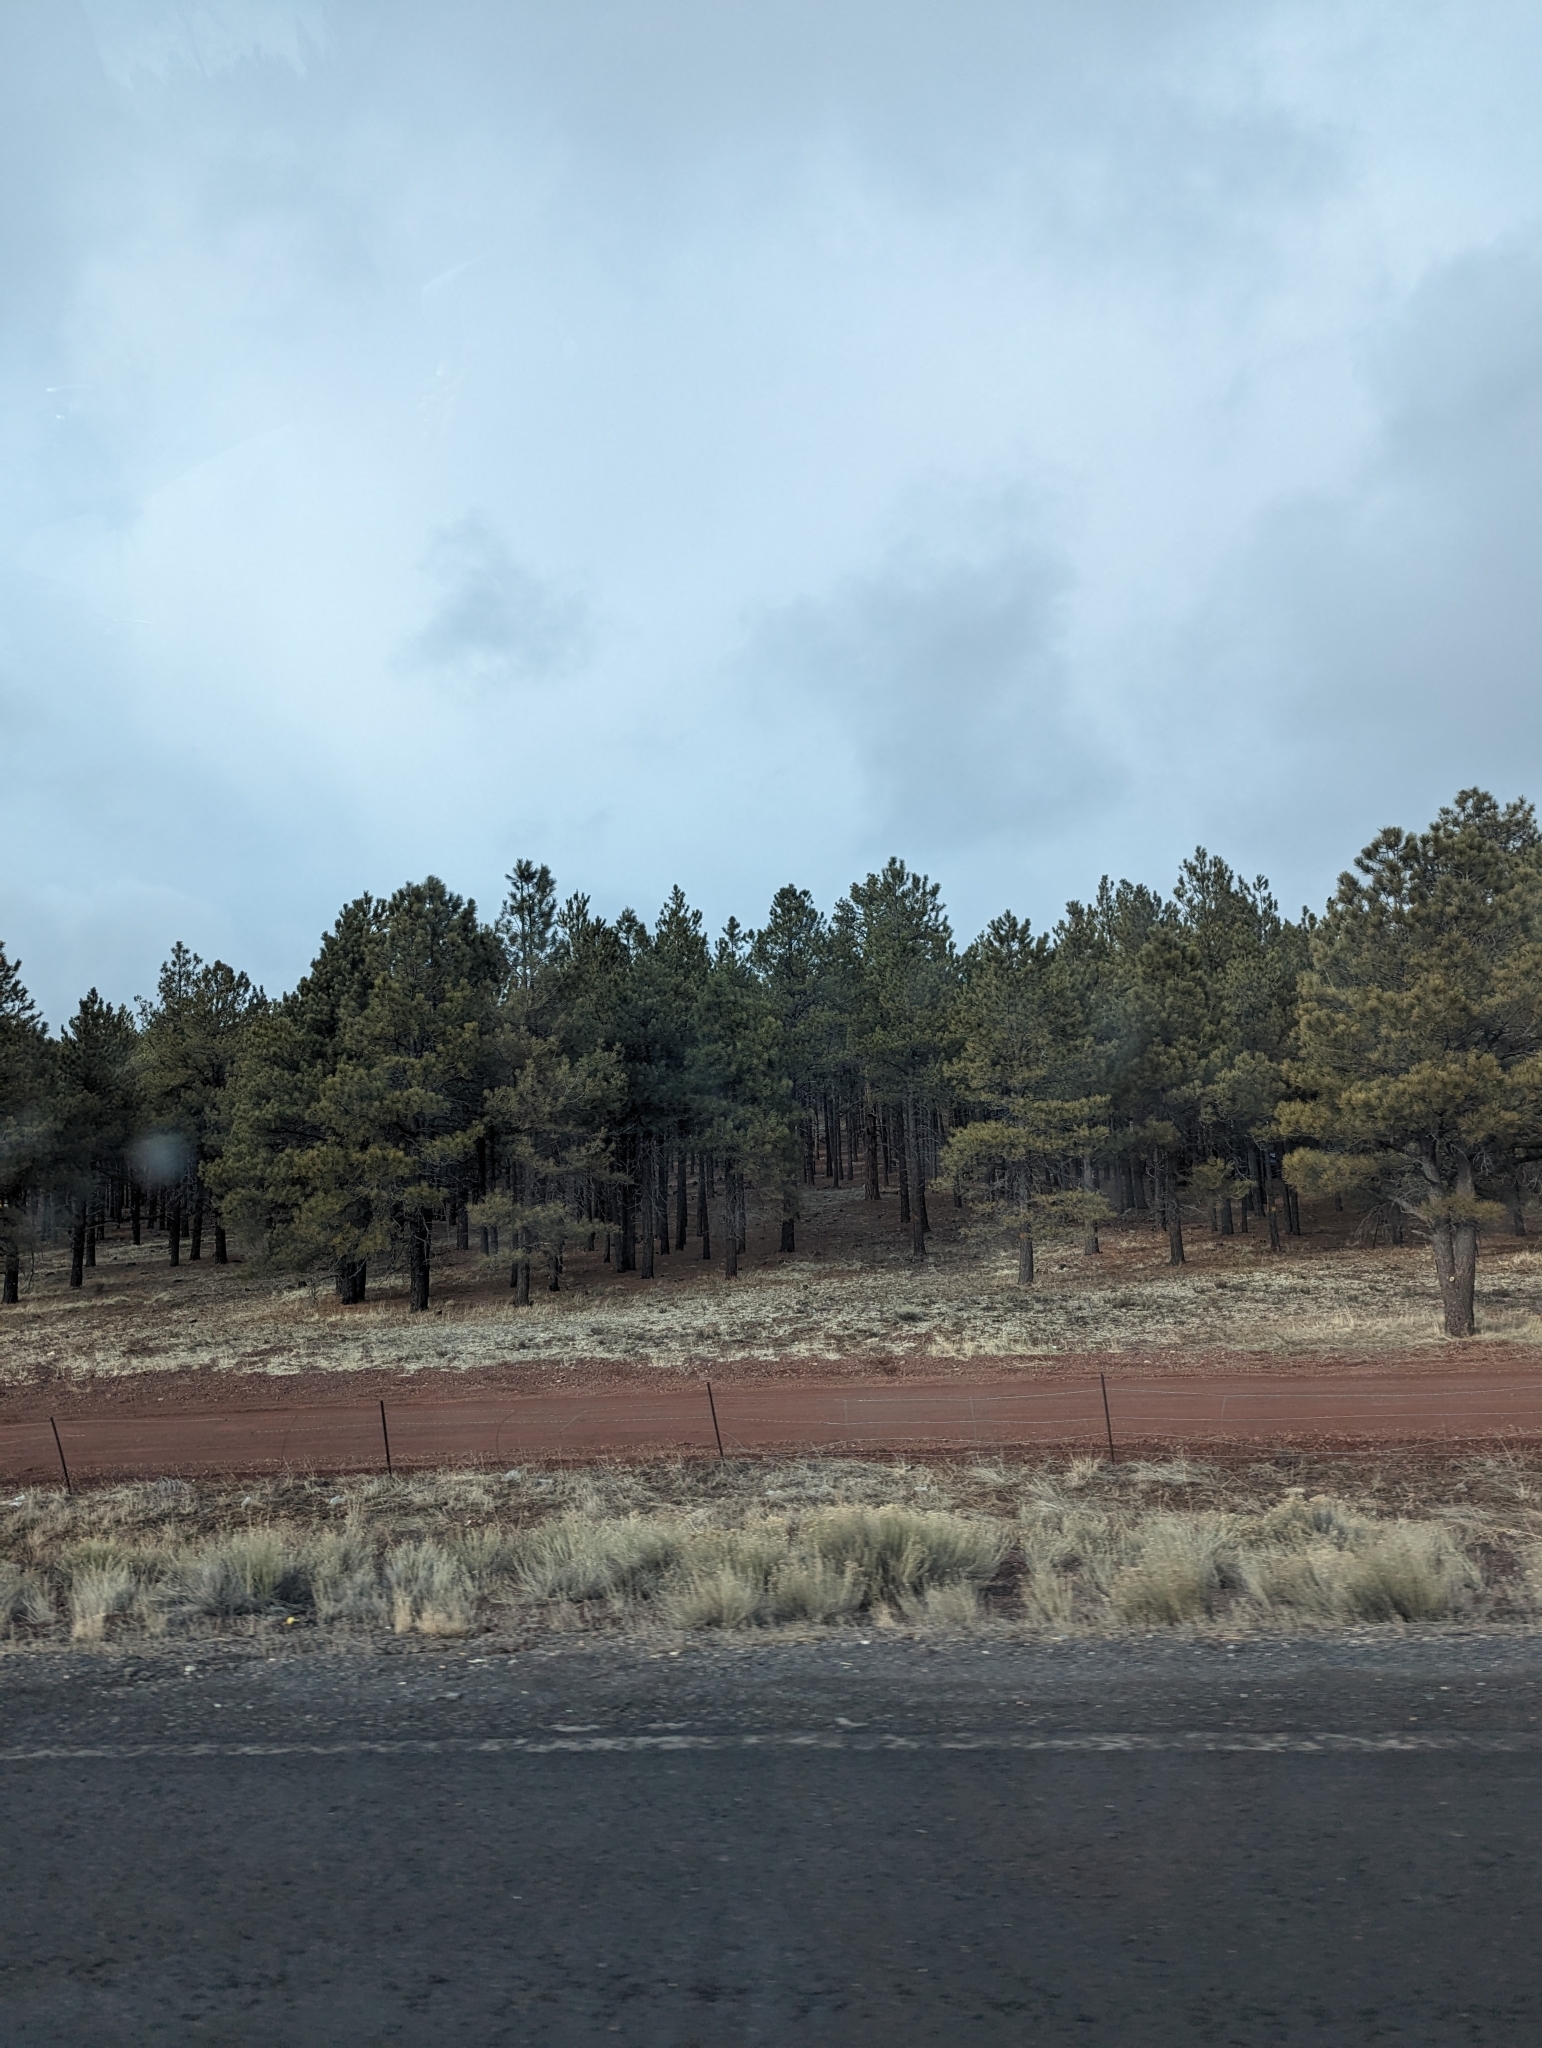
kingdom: Plantae
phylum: Tracheophyta
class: Pinopsida
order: Pinales
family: Pinaceae
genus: Pinus
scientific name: Pinus ponderosa
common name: Western yellow-pine
